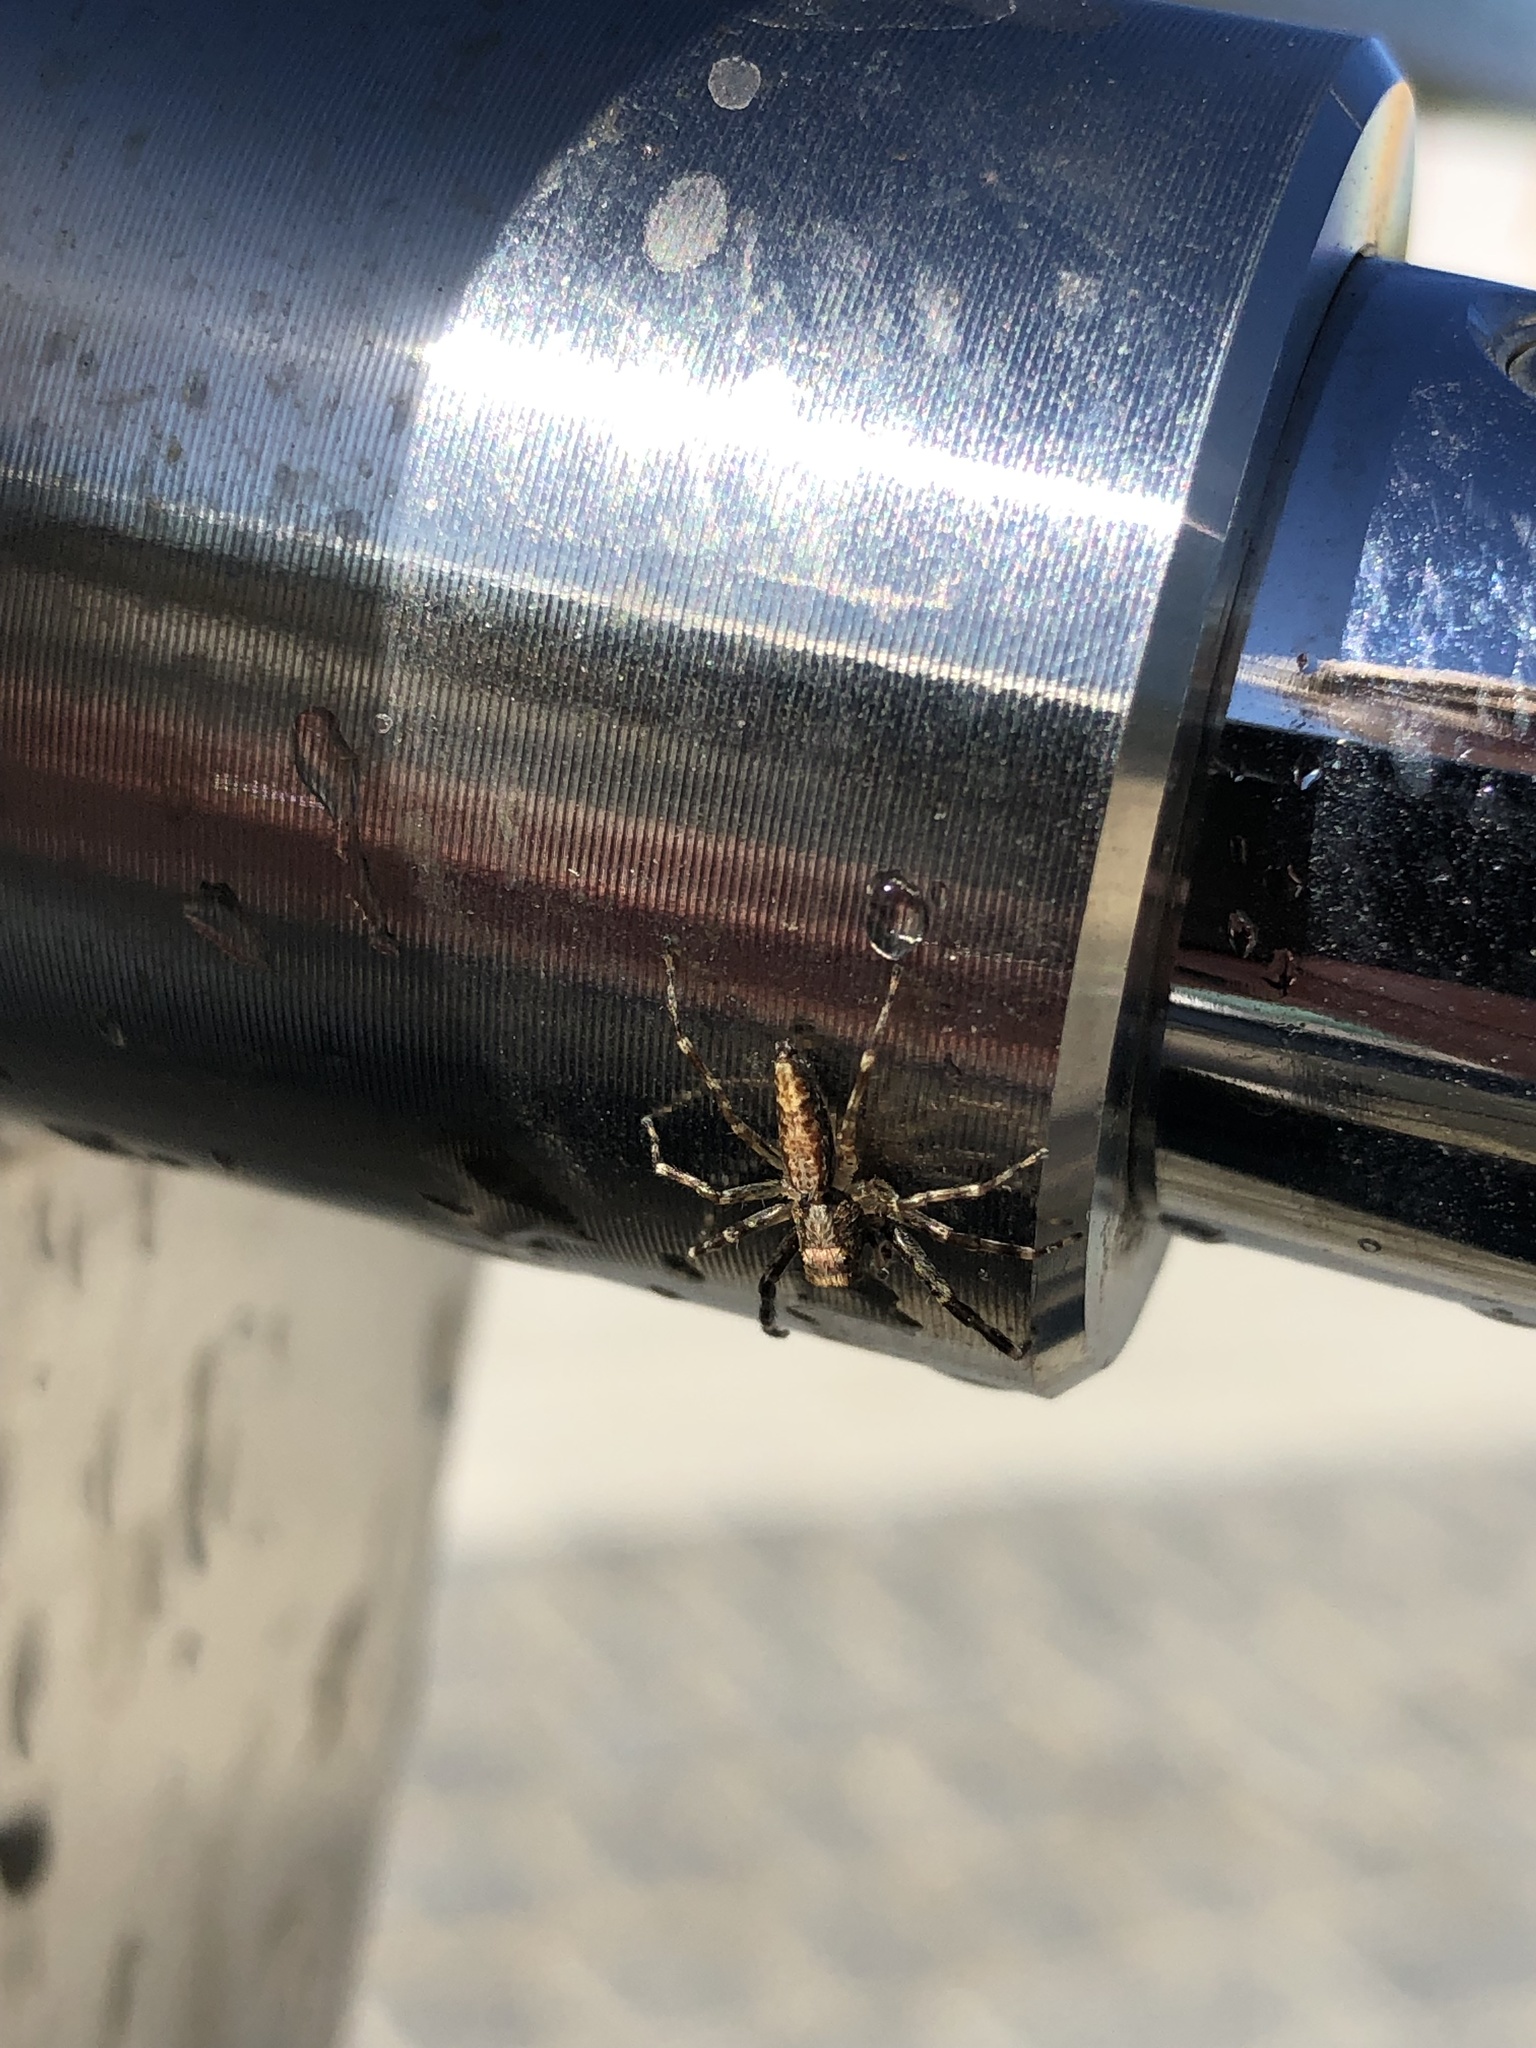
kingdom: Animalia
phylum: Arthropoda
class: Arachnida
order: Araneae
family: Salticidae
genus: Helpis
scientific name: Helpis minitabunda
